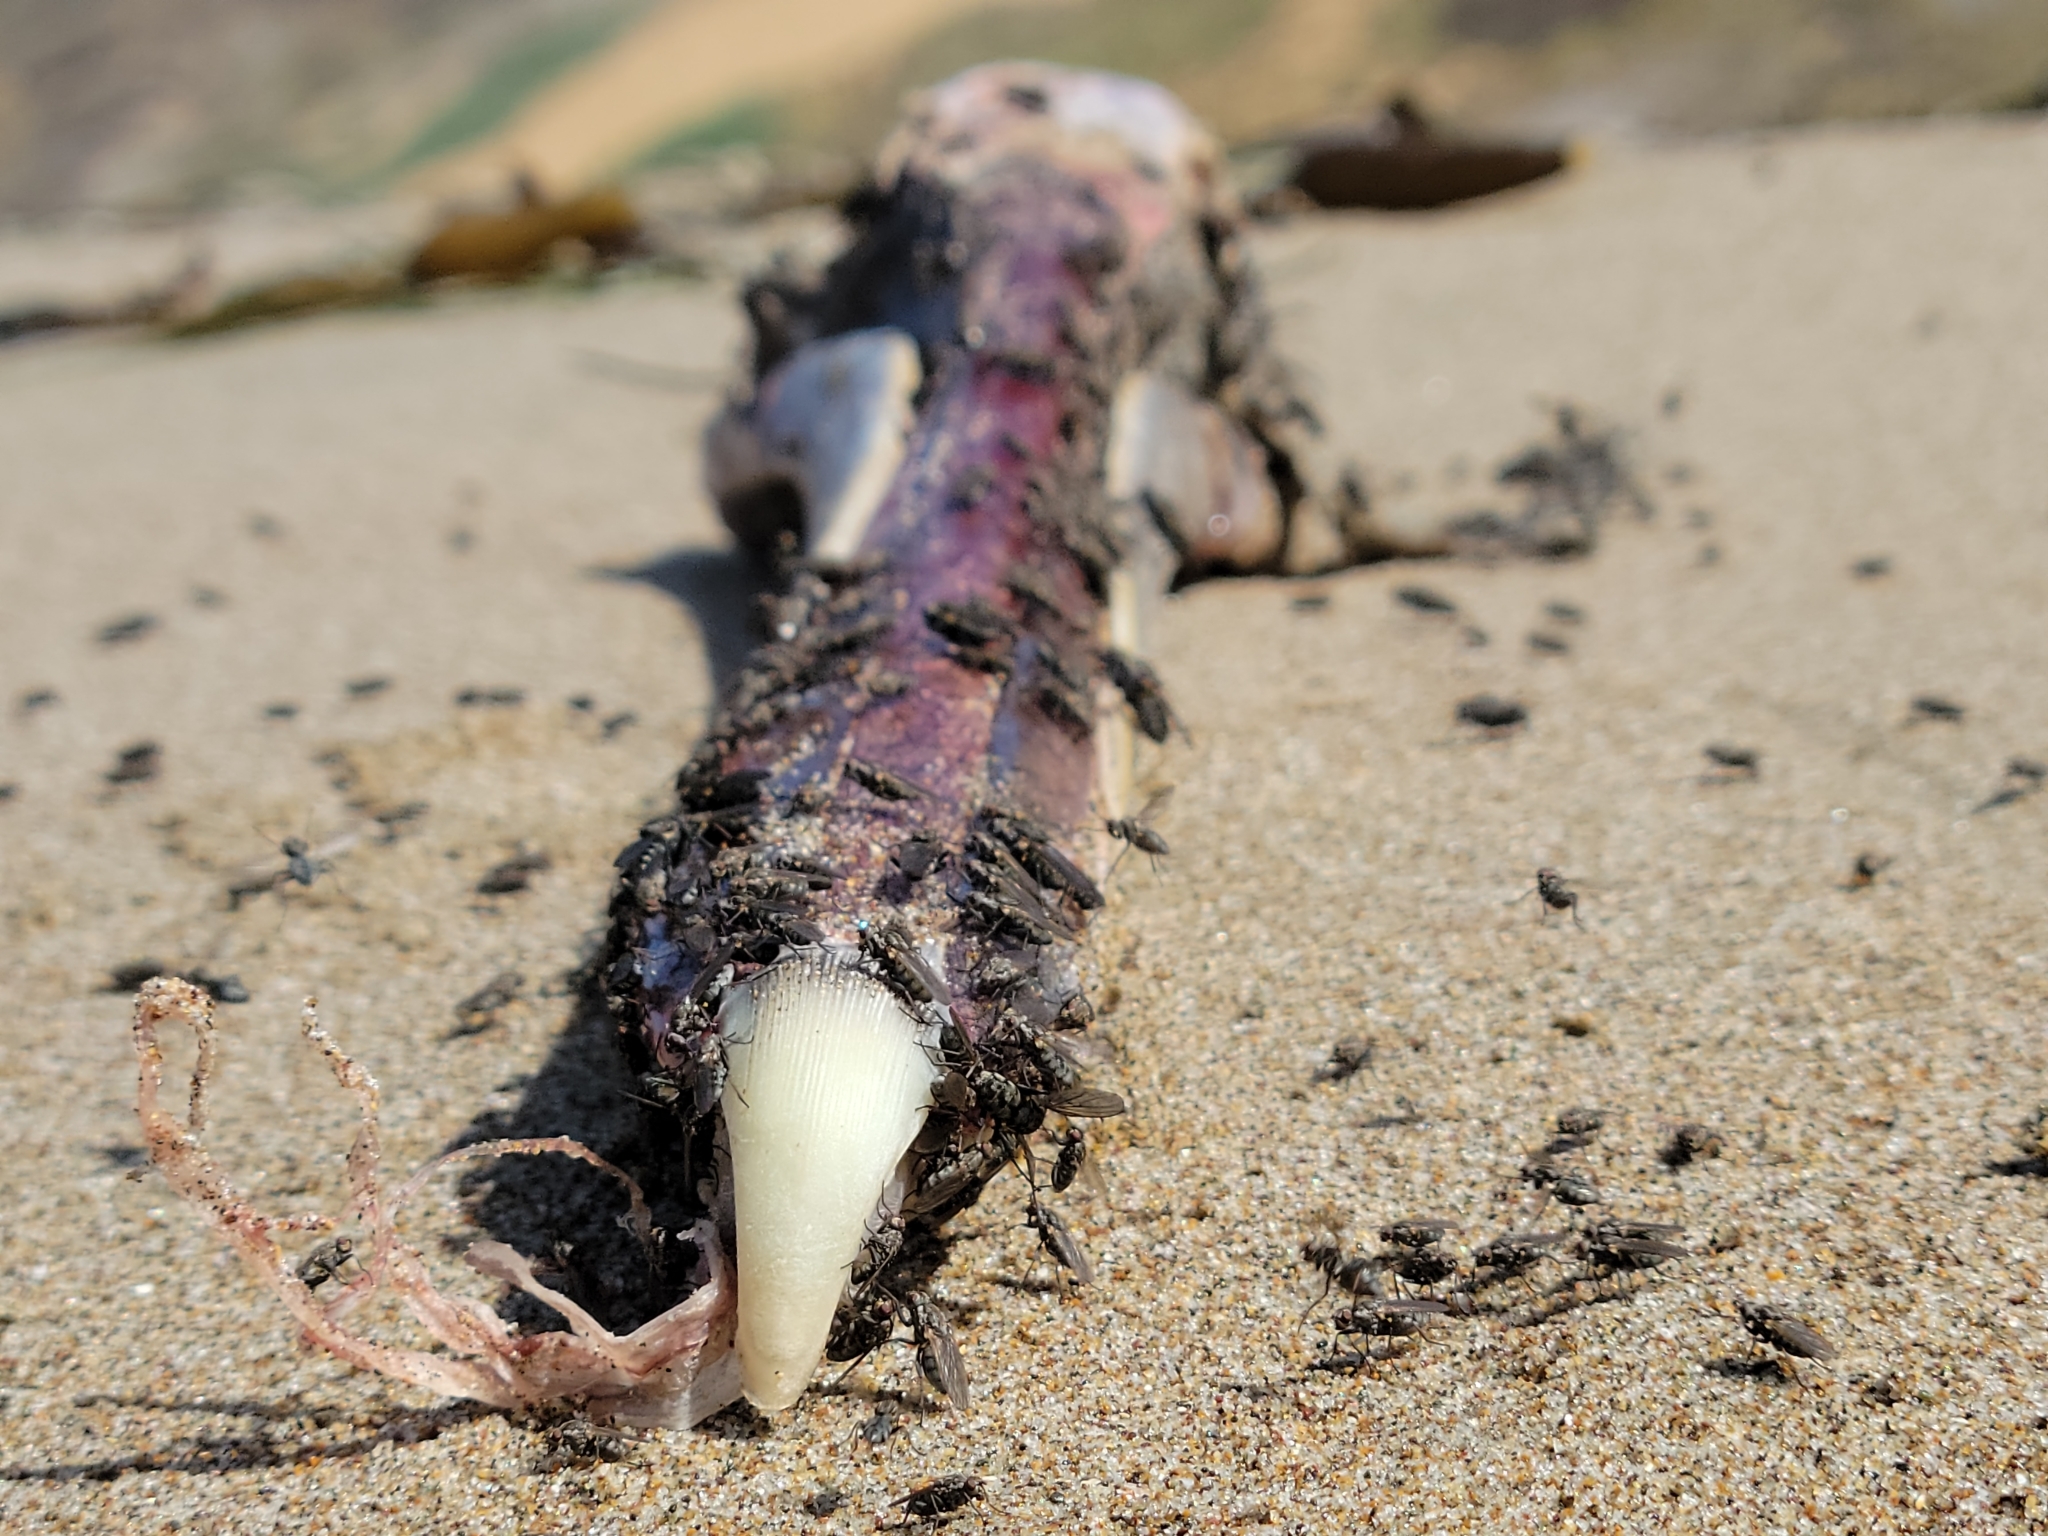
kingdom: Animalia
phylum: Chordata
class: Aves
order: Pelecaniformes
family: Pelecanidae
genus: Pelecanus
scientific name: Pelecanus occidentalis
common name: Brown pelican
